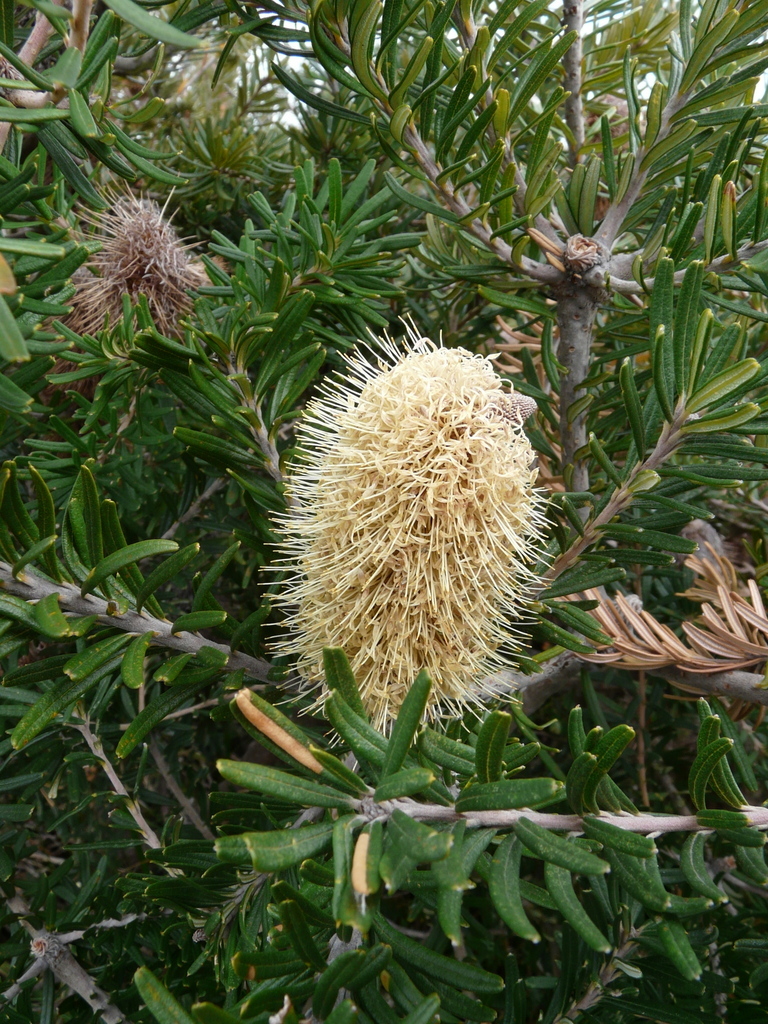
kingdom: Plantae
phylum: Tracheophyta
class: Magnoliopsida
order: Proteales
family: Proteaceae
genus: Banksia
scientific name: Banksia marginata
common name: Silver banksia
